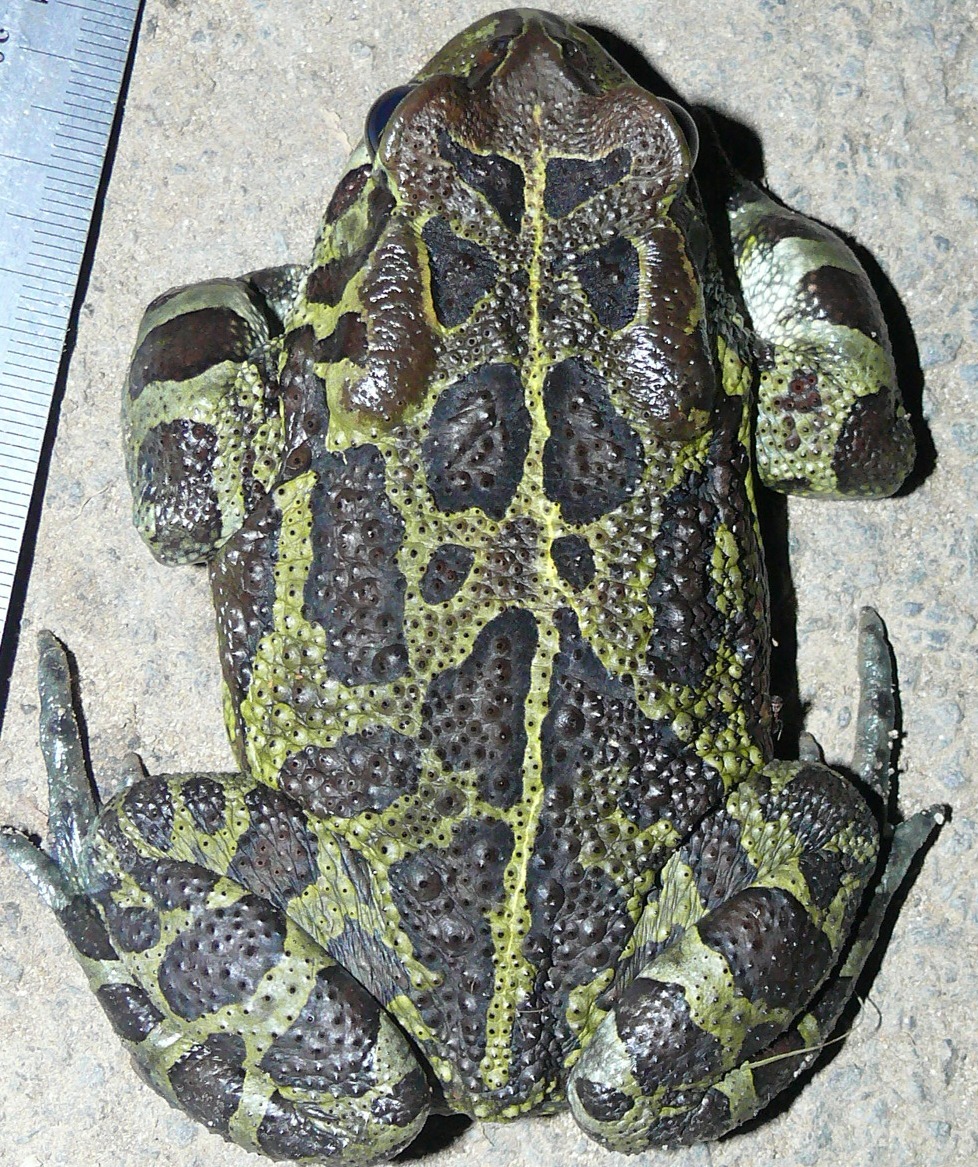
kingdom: Animalia
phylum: Chordata
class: Amphibia
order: Anura
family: Bufonidae
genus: Sclerophrys
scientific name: Sclerophrys pantherina
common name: Panther toad
